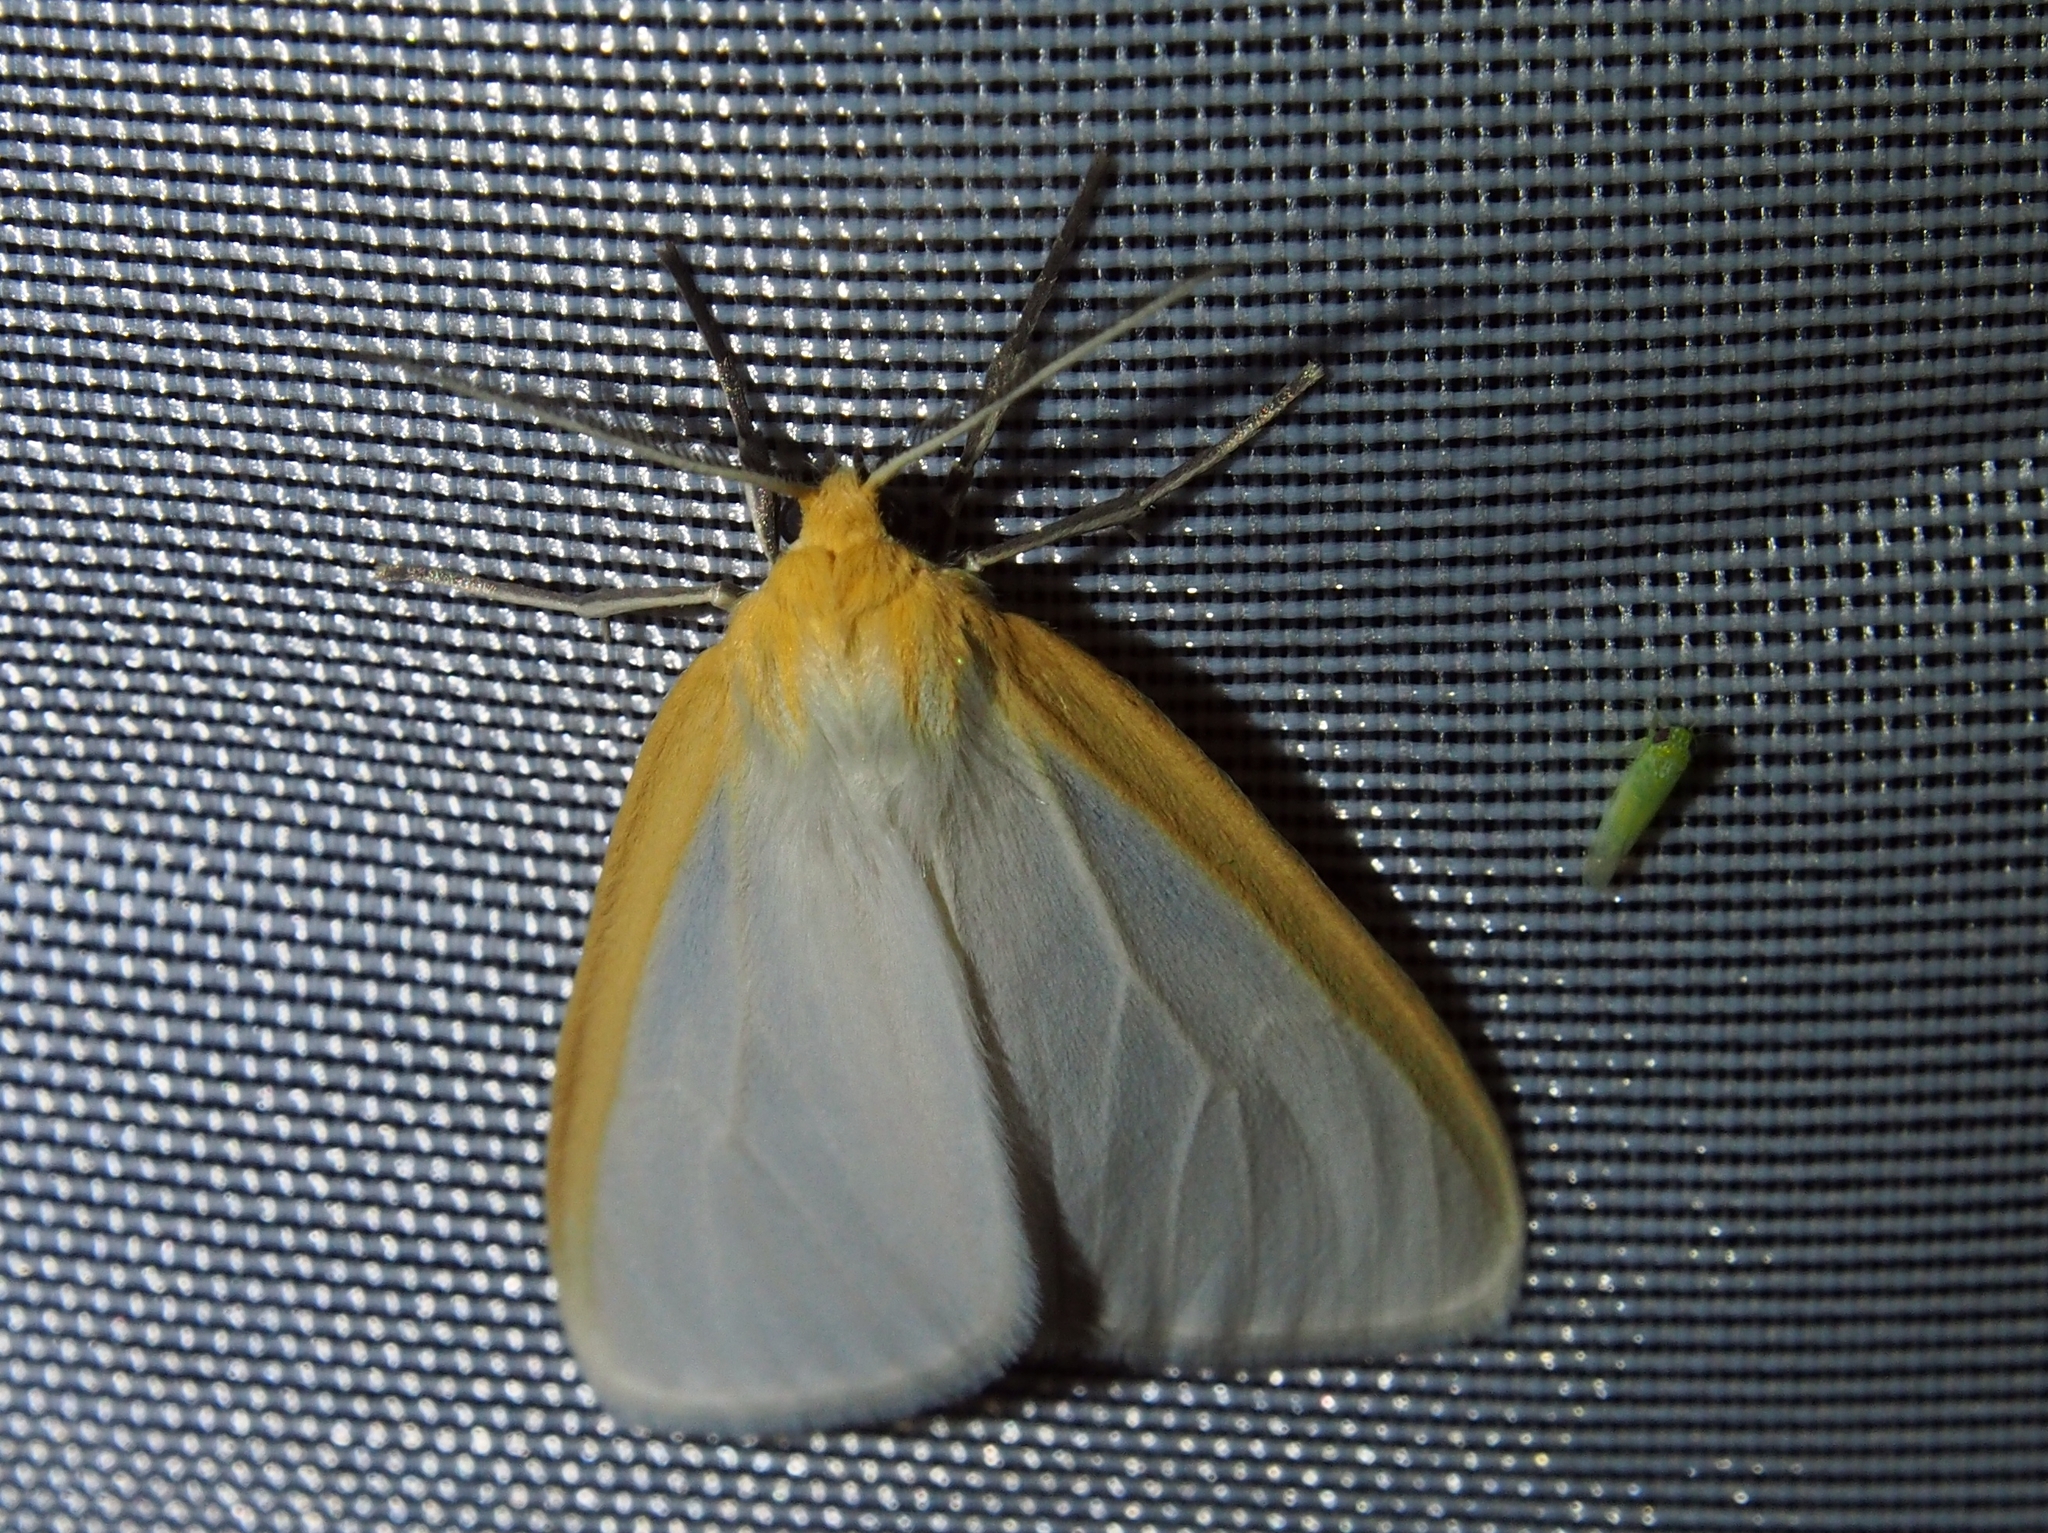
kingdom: Animalia
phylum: Arthropoda
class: Insecta
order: Lepidoptera
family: Erebidae
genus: Cycnia
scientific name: Cycnia tenera
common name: Delicate cycnia moth
